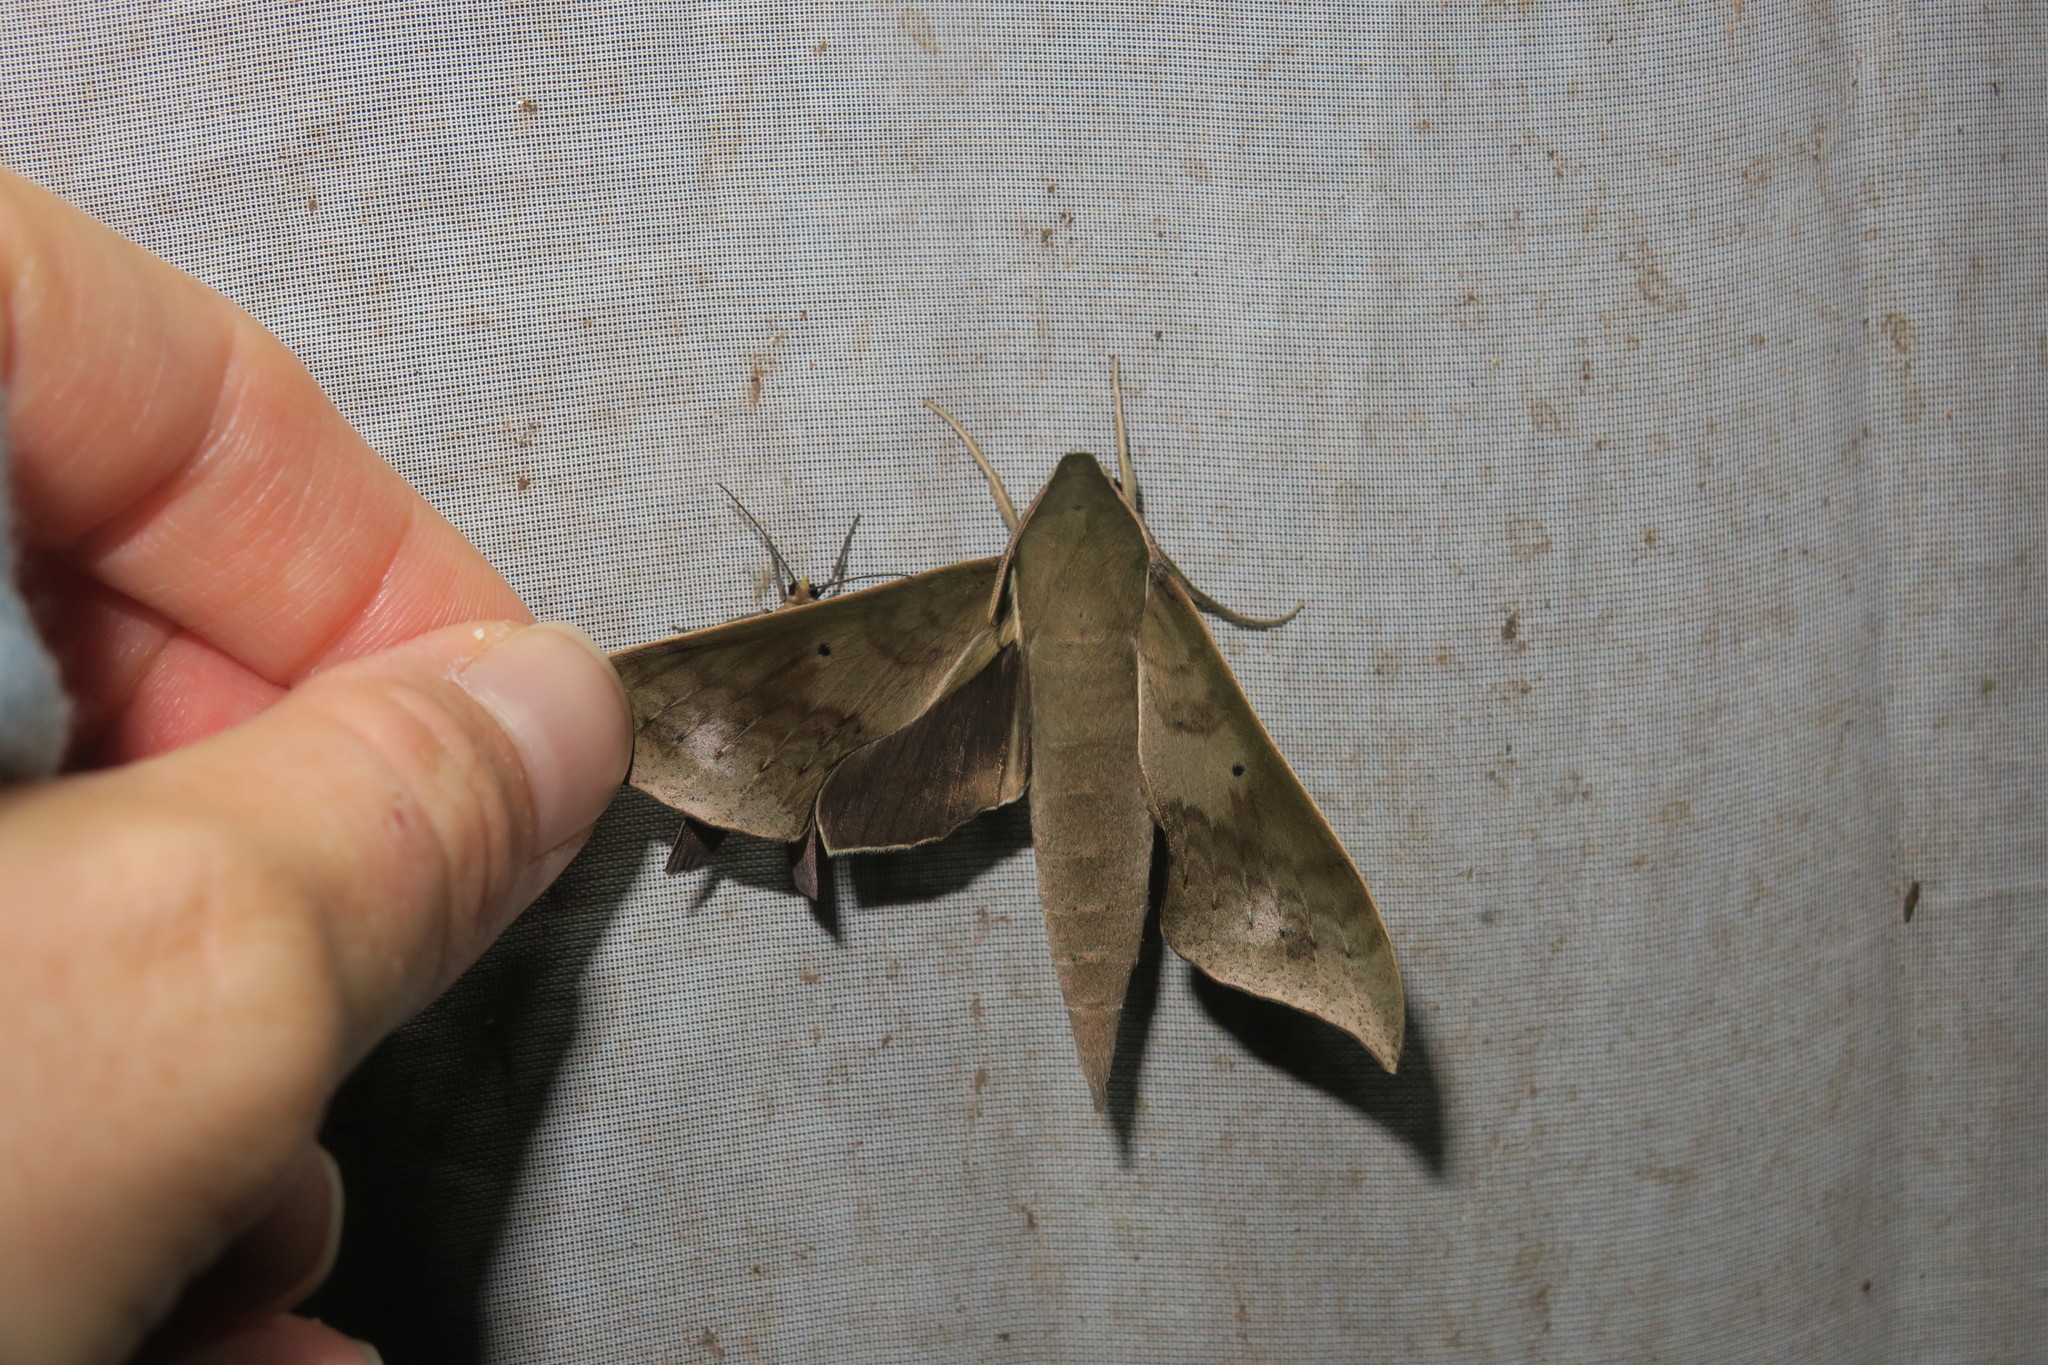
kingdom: Animalia
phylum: Arthropoda
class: Insecta
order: Lepidoptera
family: Sphingidae
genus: Xylophanes
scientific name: Xylophanes hannemanni
